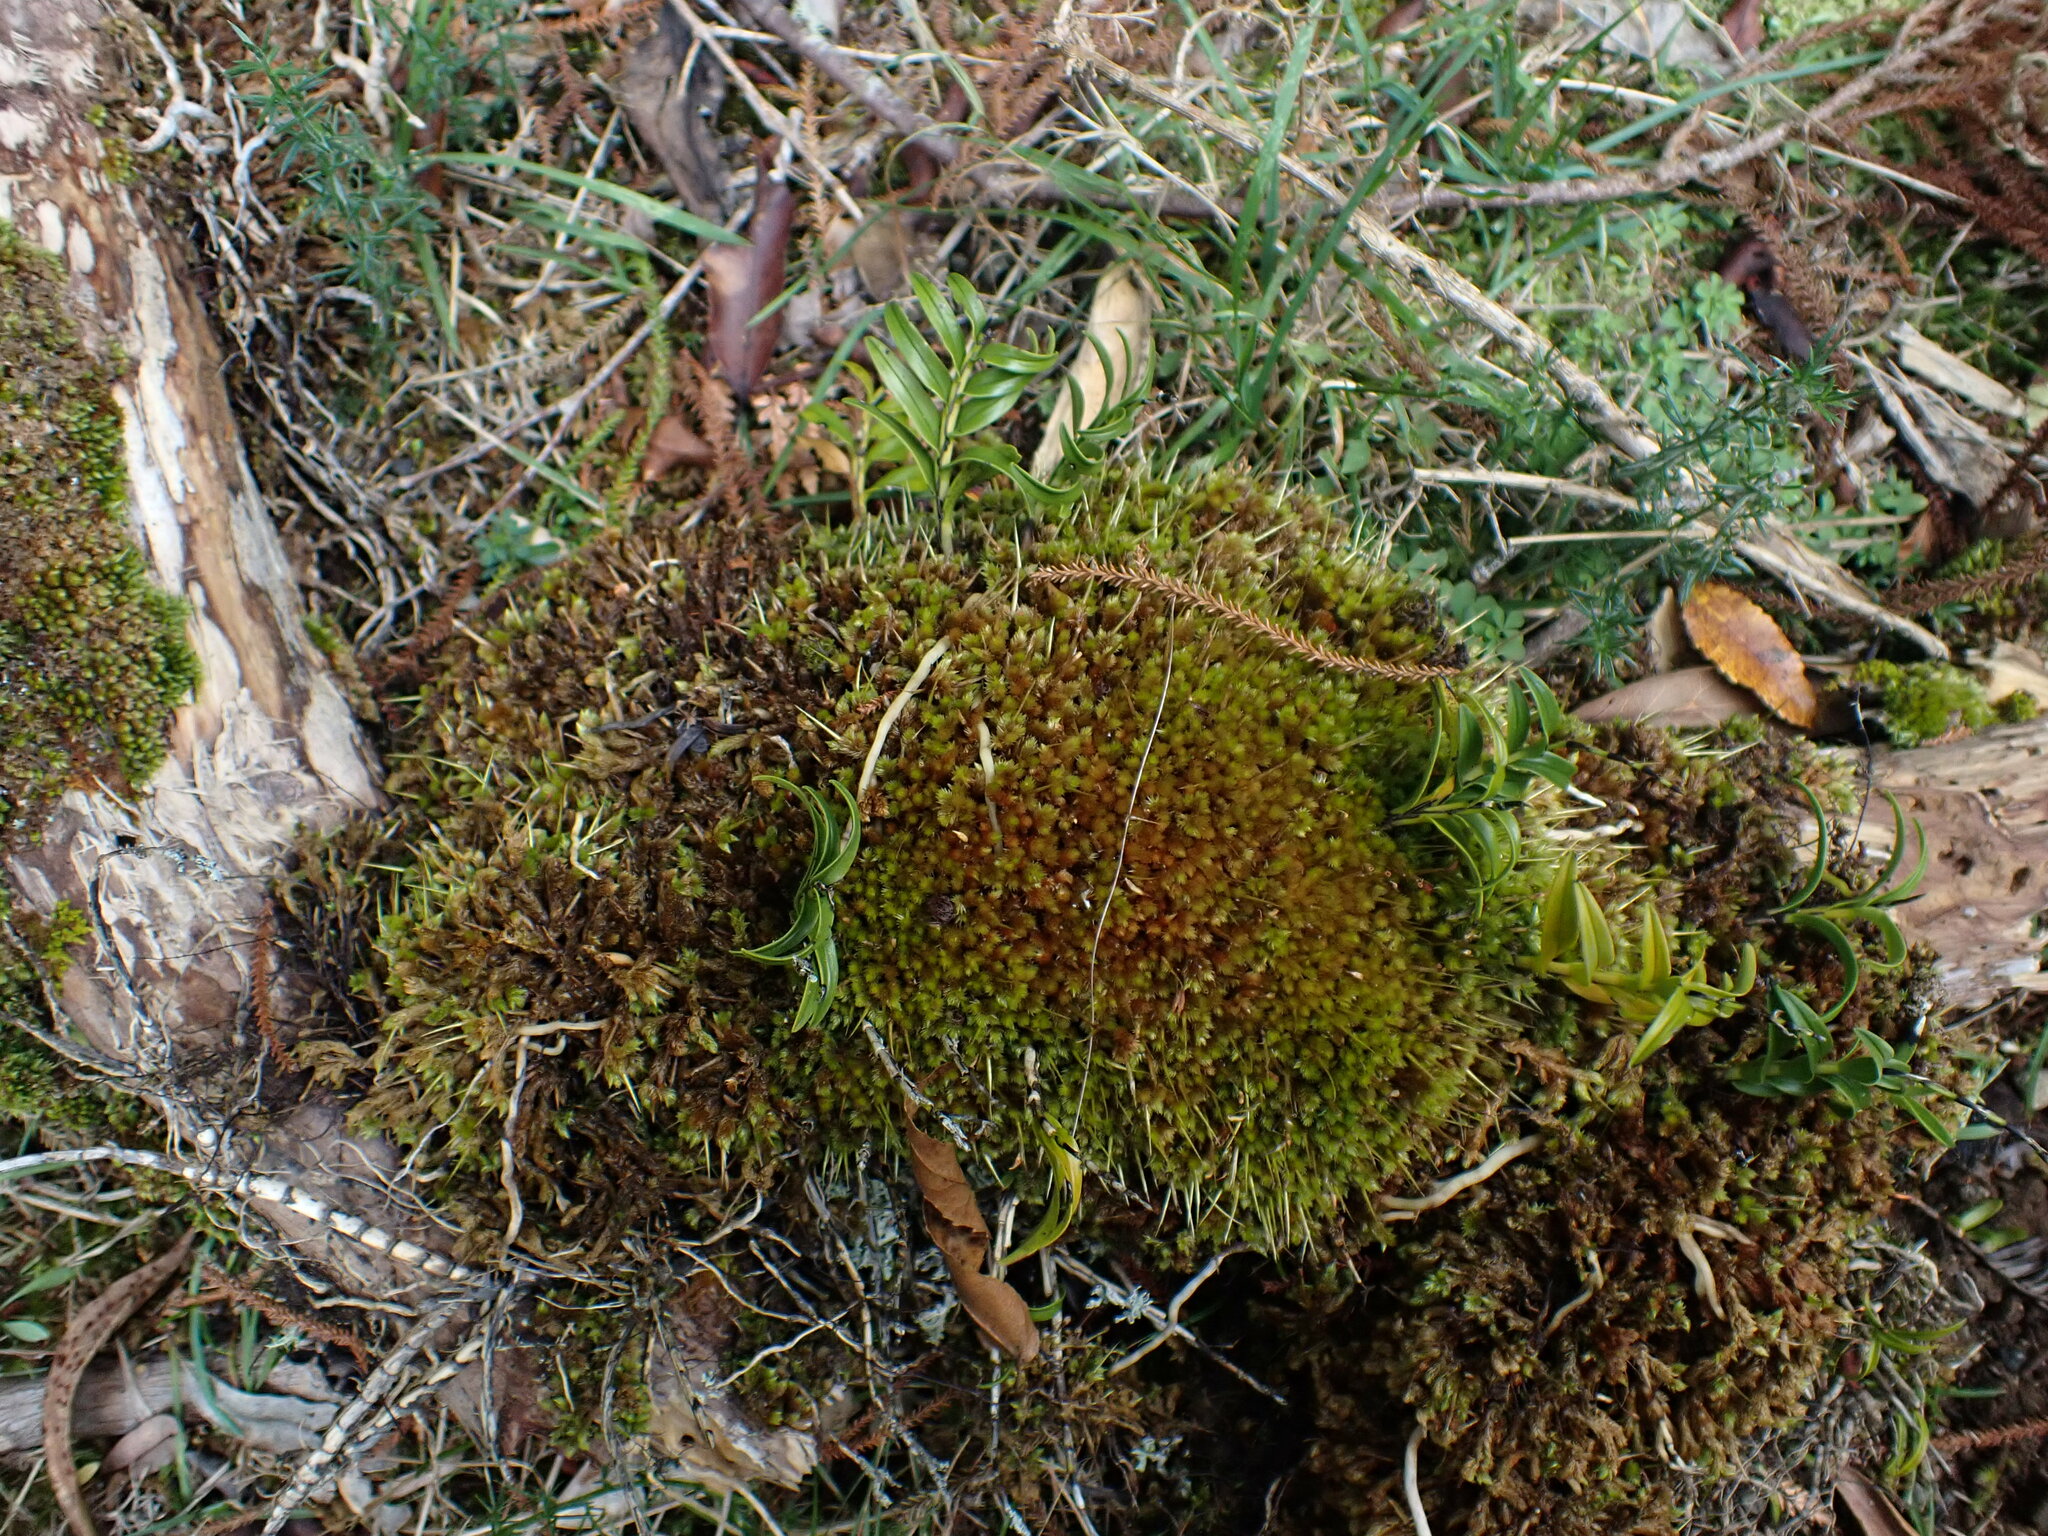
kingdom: Plantae
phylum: Bryophyta
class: Bryopsida
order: Dicranales
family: Dicranaceae
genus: Dicnemon
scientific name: Dicnemon calycinum
